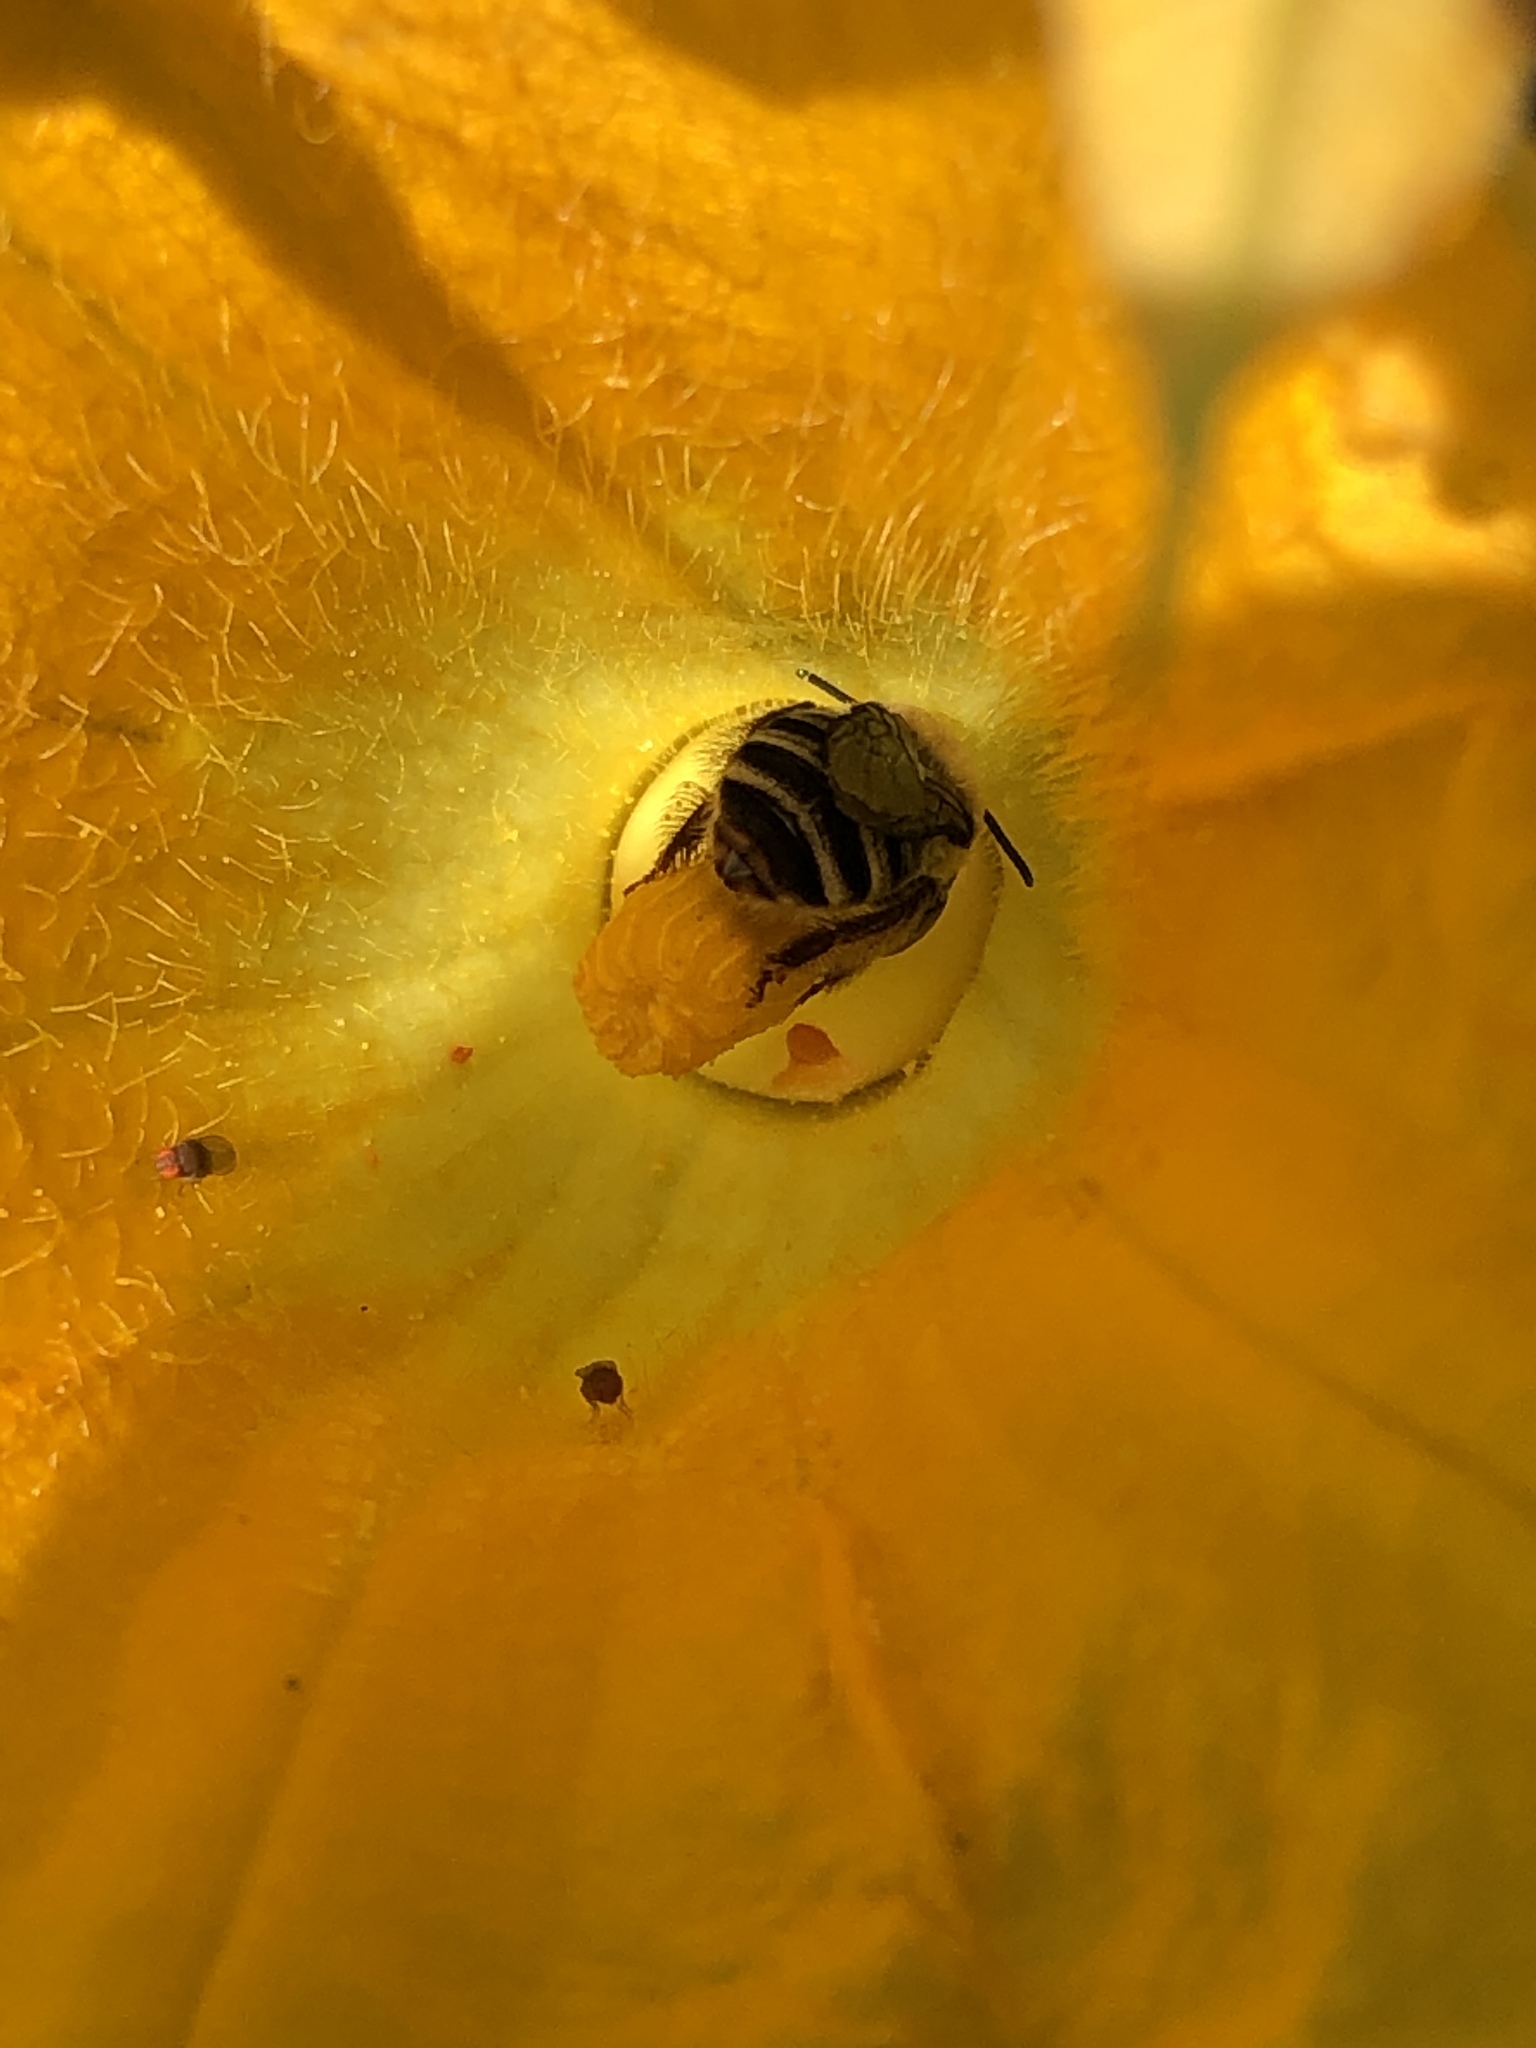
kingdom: Animalia
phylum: Arthropoda
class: Insecta
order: Hymenoptera
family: Apidae
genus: Peponapis
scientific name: Peponapis pruinosa
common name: Pruinose squash bee
